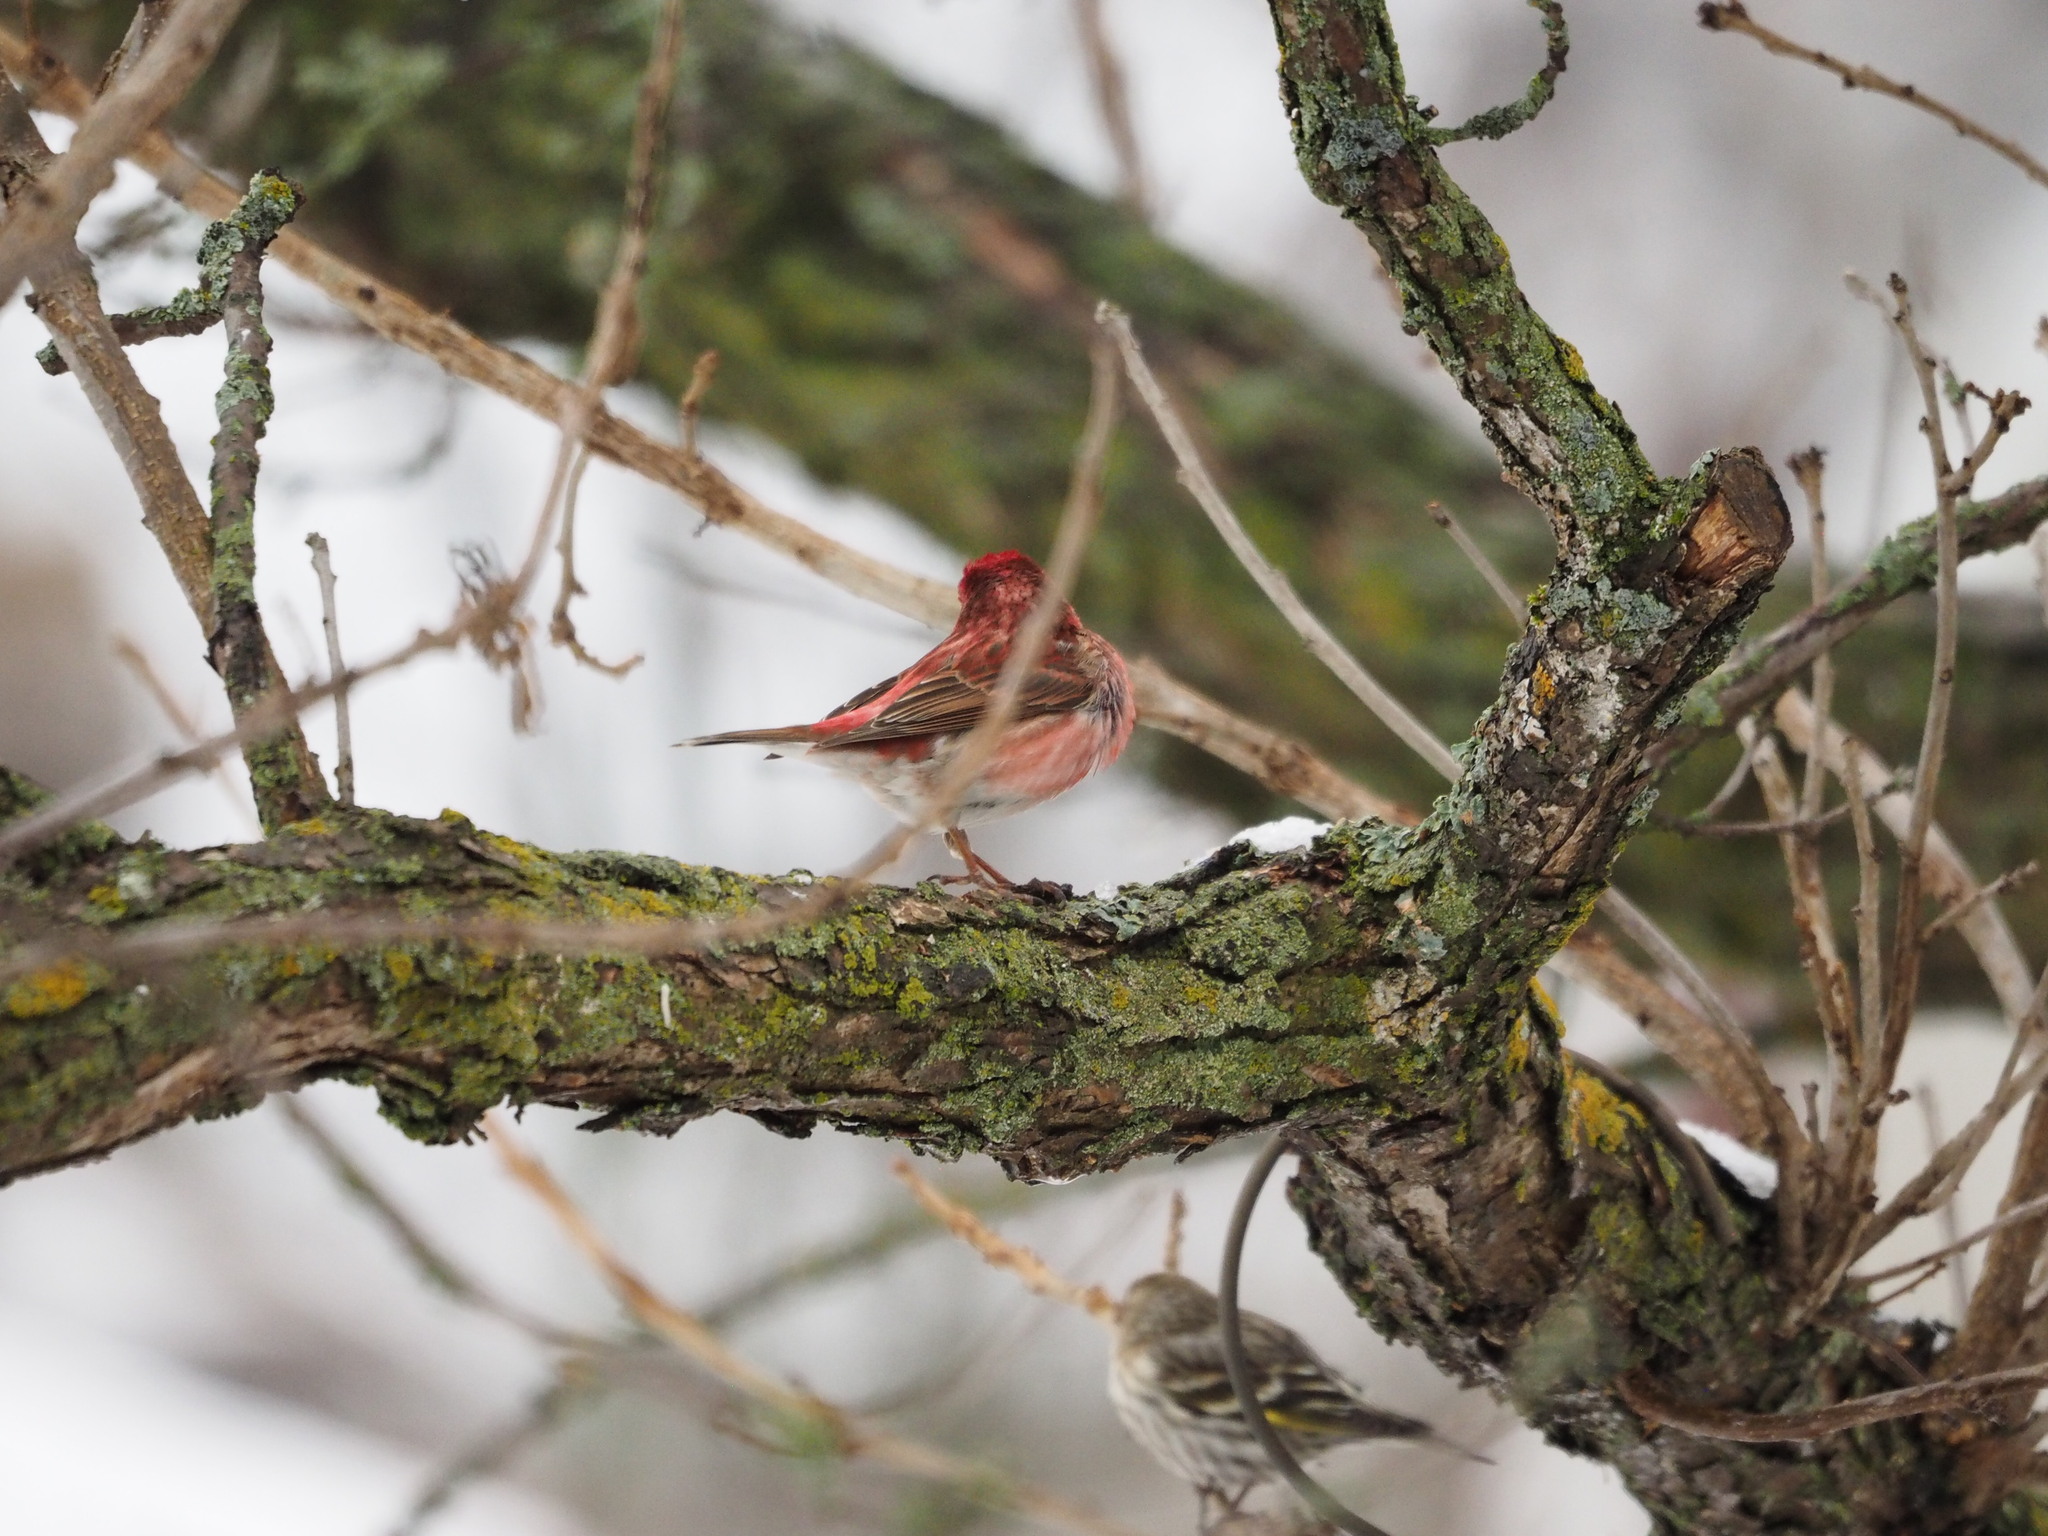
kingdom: Animalia
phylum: Chordata
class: Aves
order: Passeriformes
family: Fringillidae
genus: Haemorhous
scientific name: Haemorhous purpureus
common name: Purple finch
